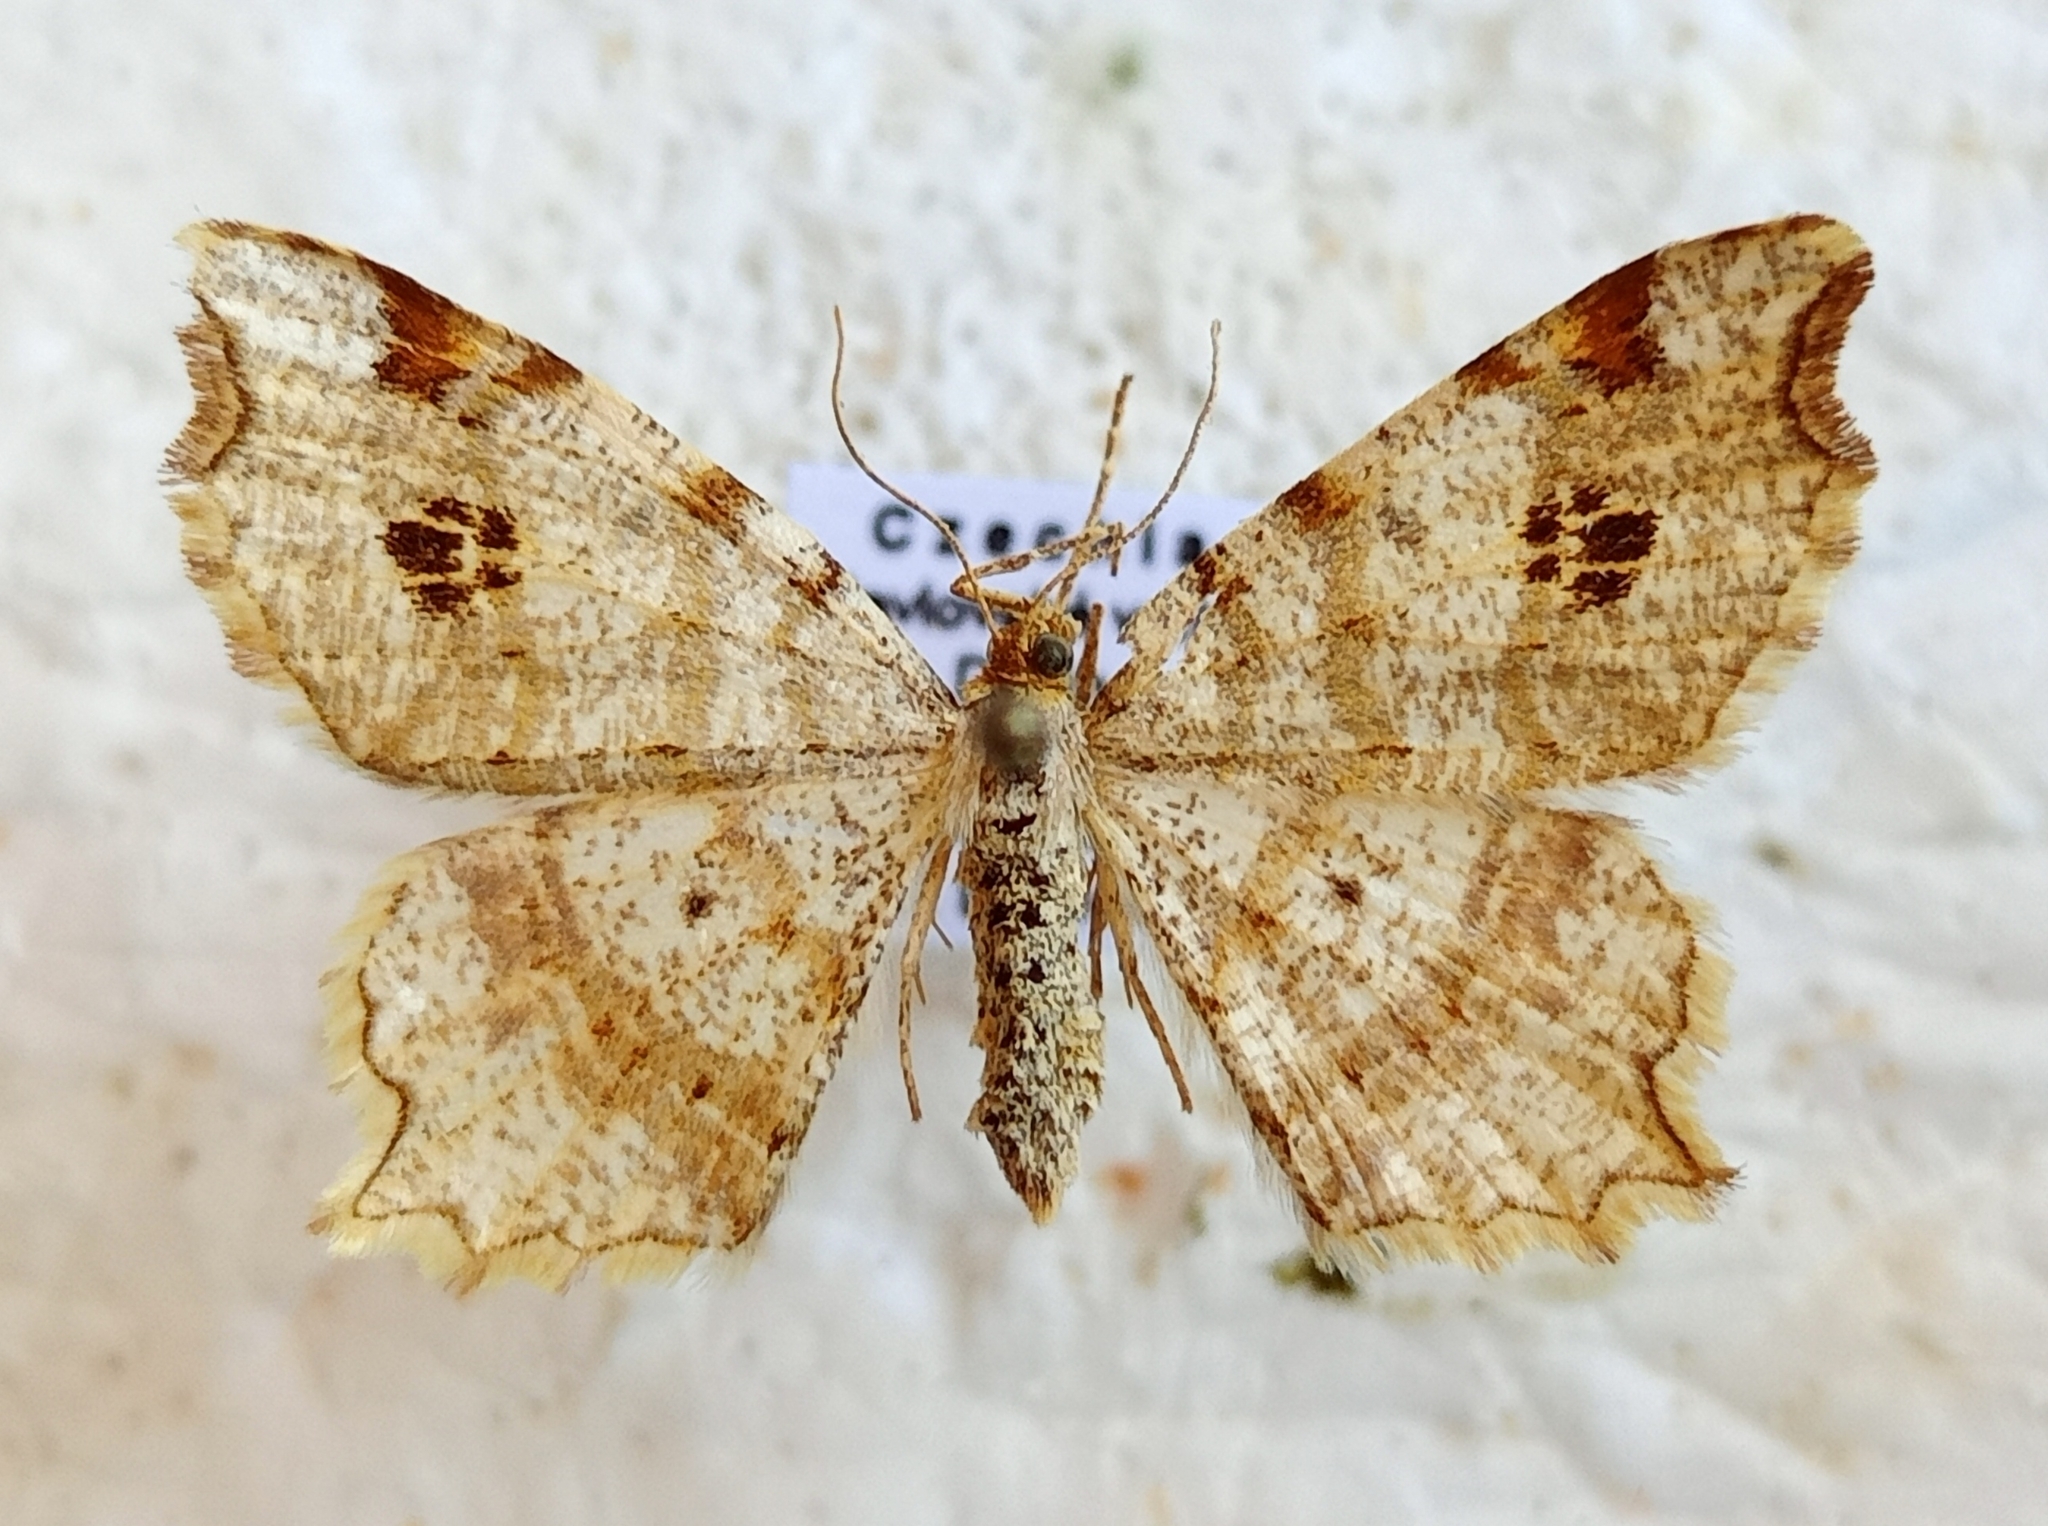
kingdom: Animalia
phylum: Arthropoda
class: Insecta
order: Lepidoptera
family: Geometridae
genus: Macaria
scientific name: Macaria notata
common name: Peacock moth
